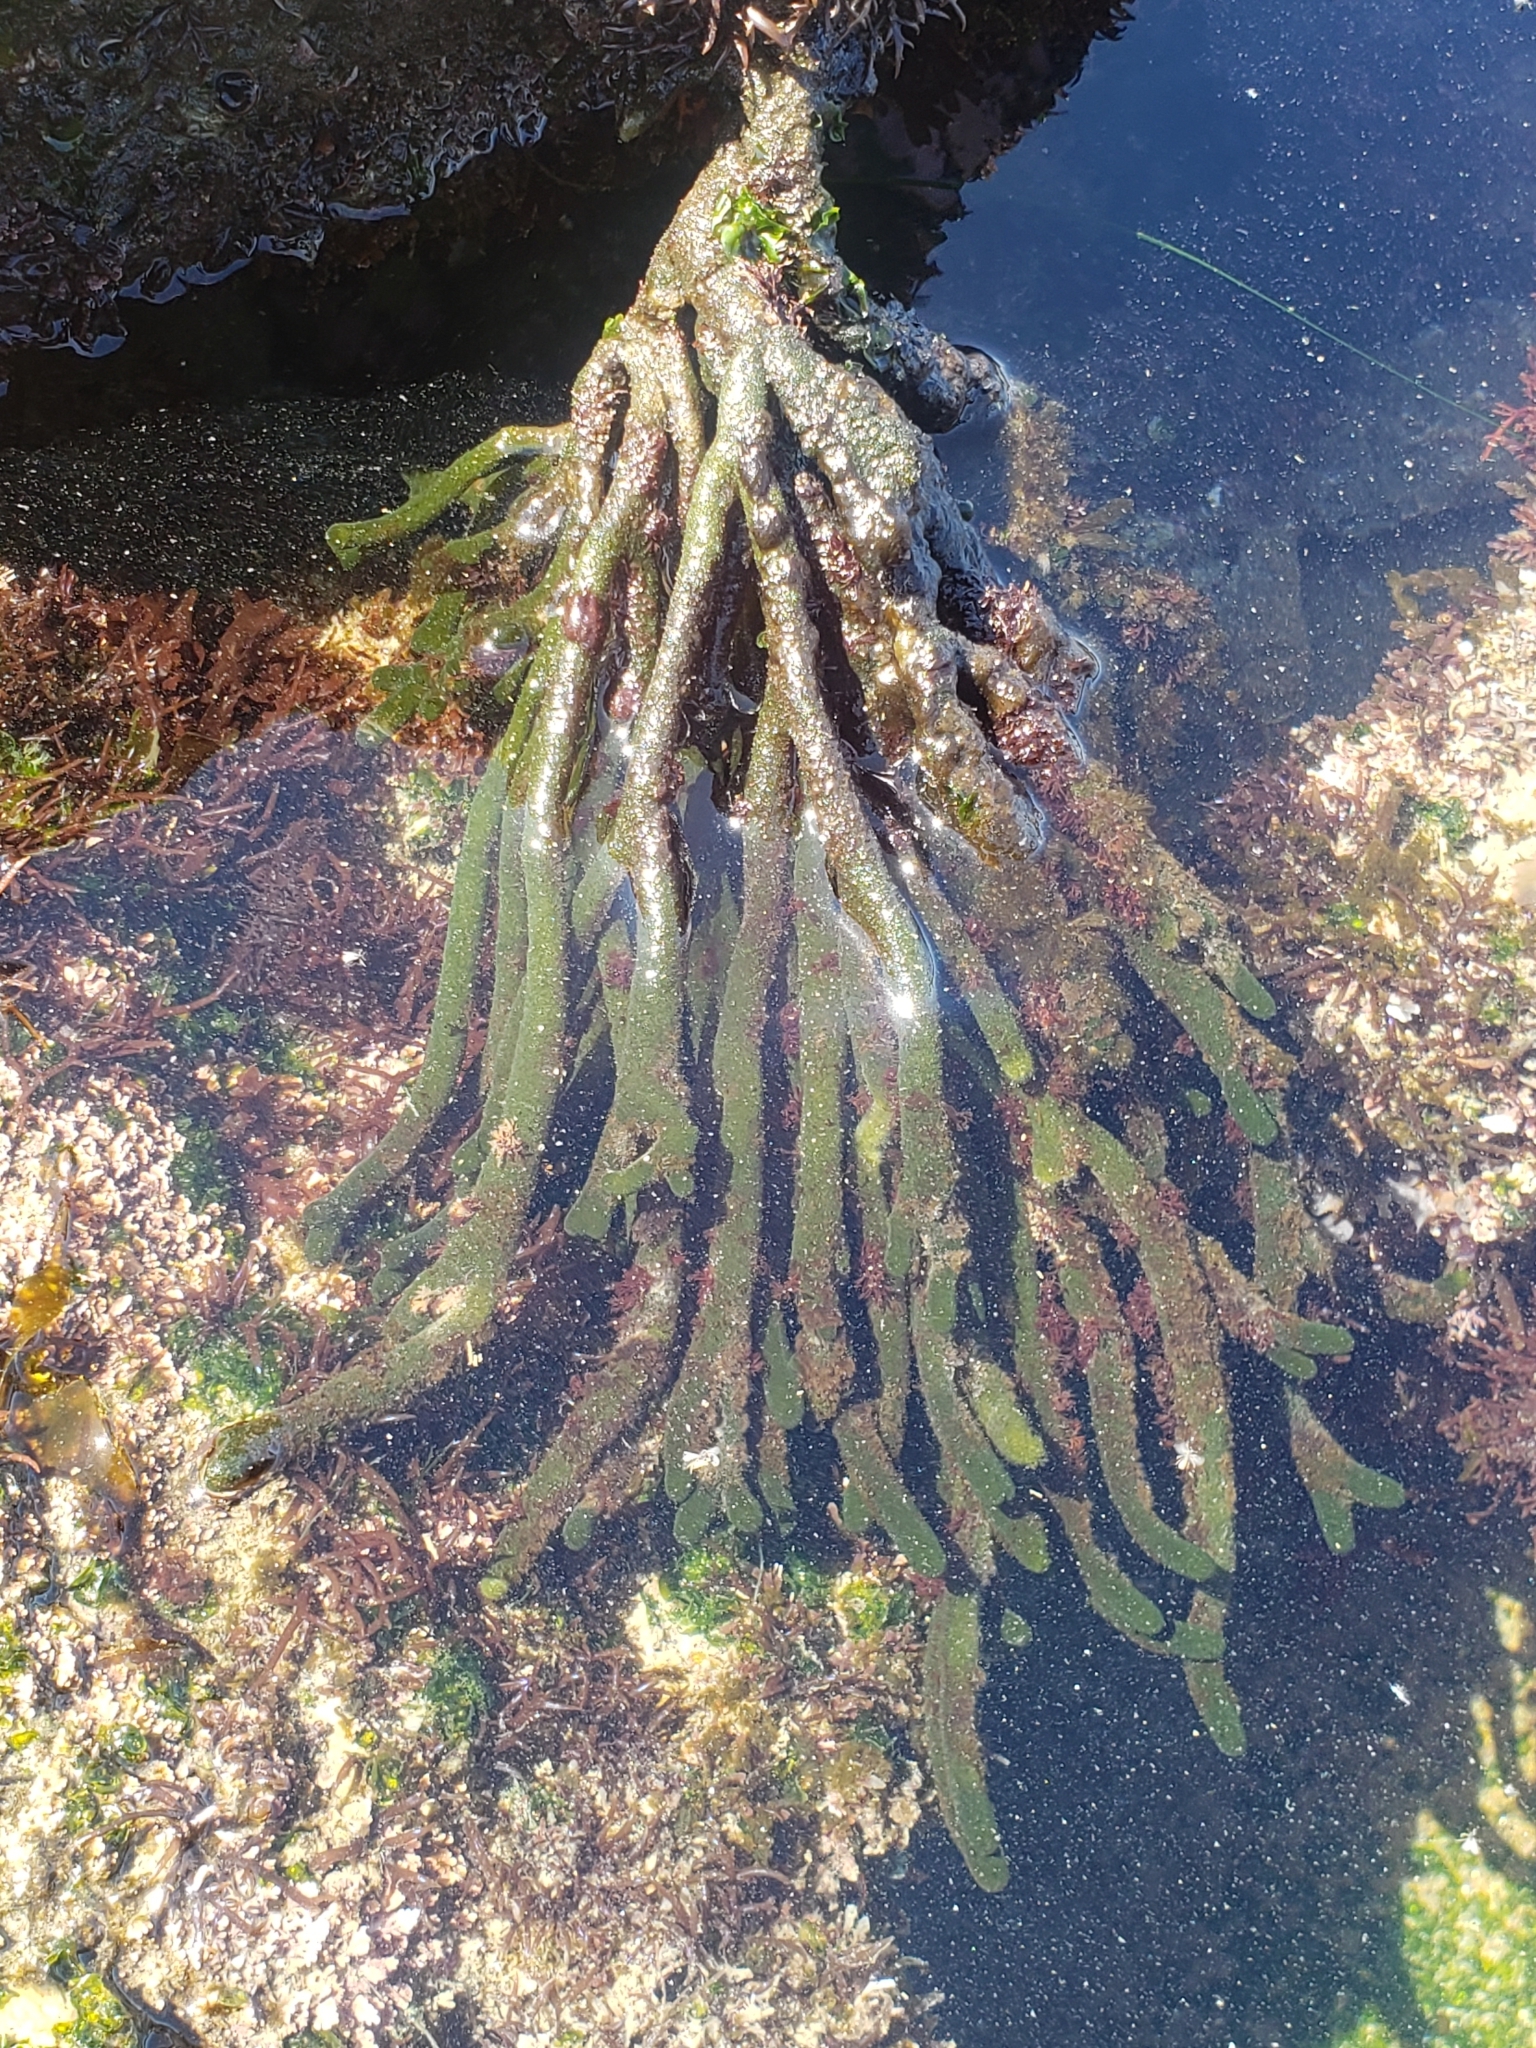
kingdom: Plantae
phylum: Chlorophyta
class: Ulvophyceae
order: Bryopsidales
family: Codiaceae
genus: Codium
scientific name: Codium fragile
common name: Dead man's fingers
